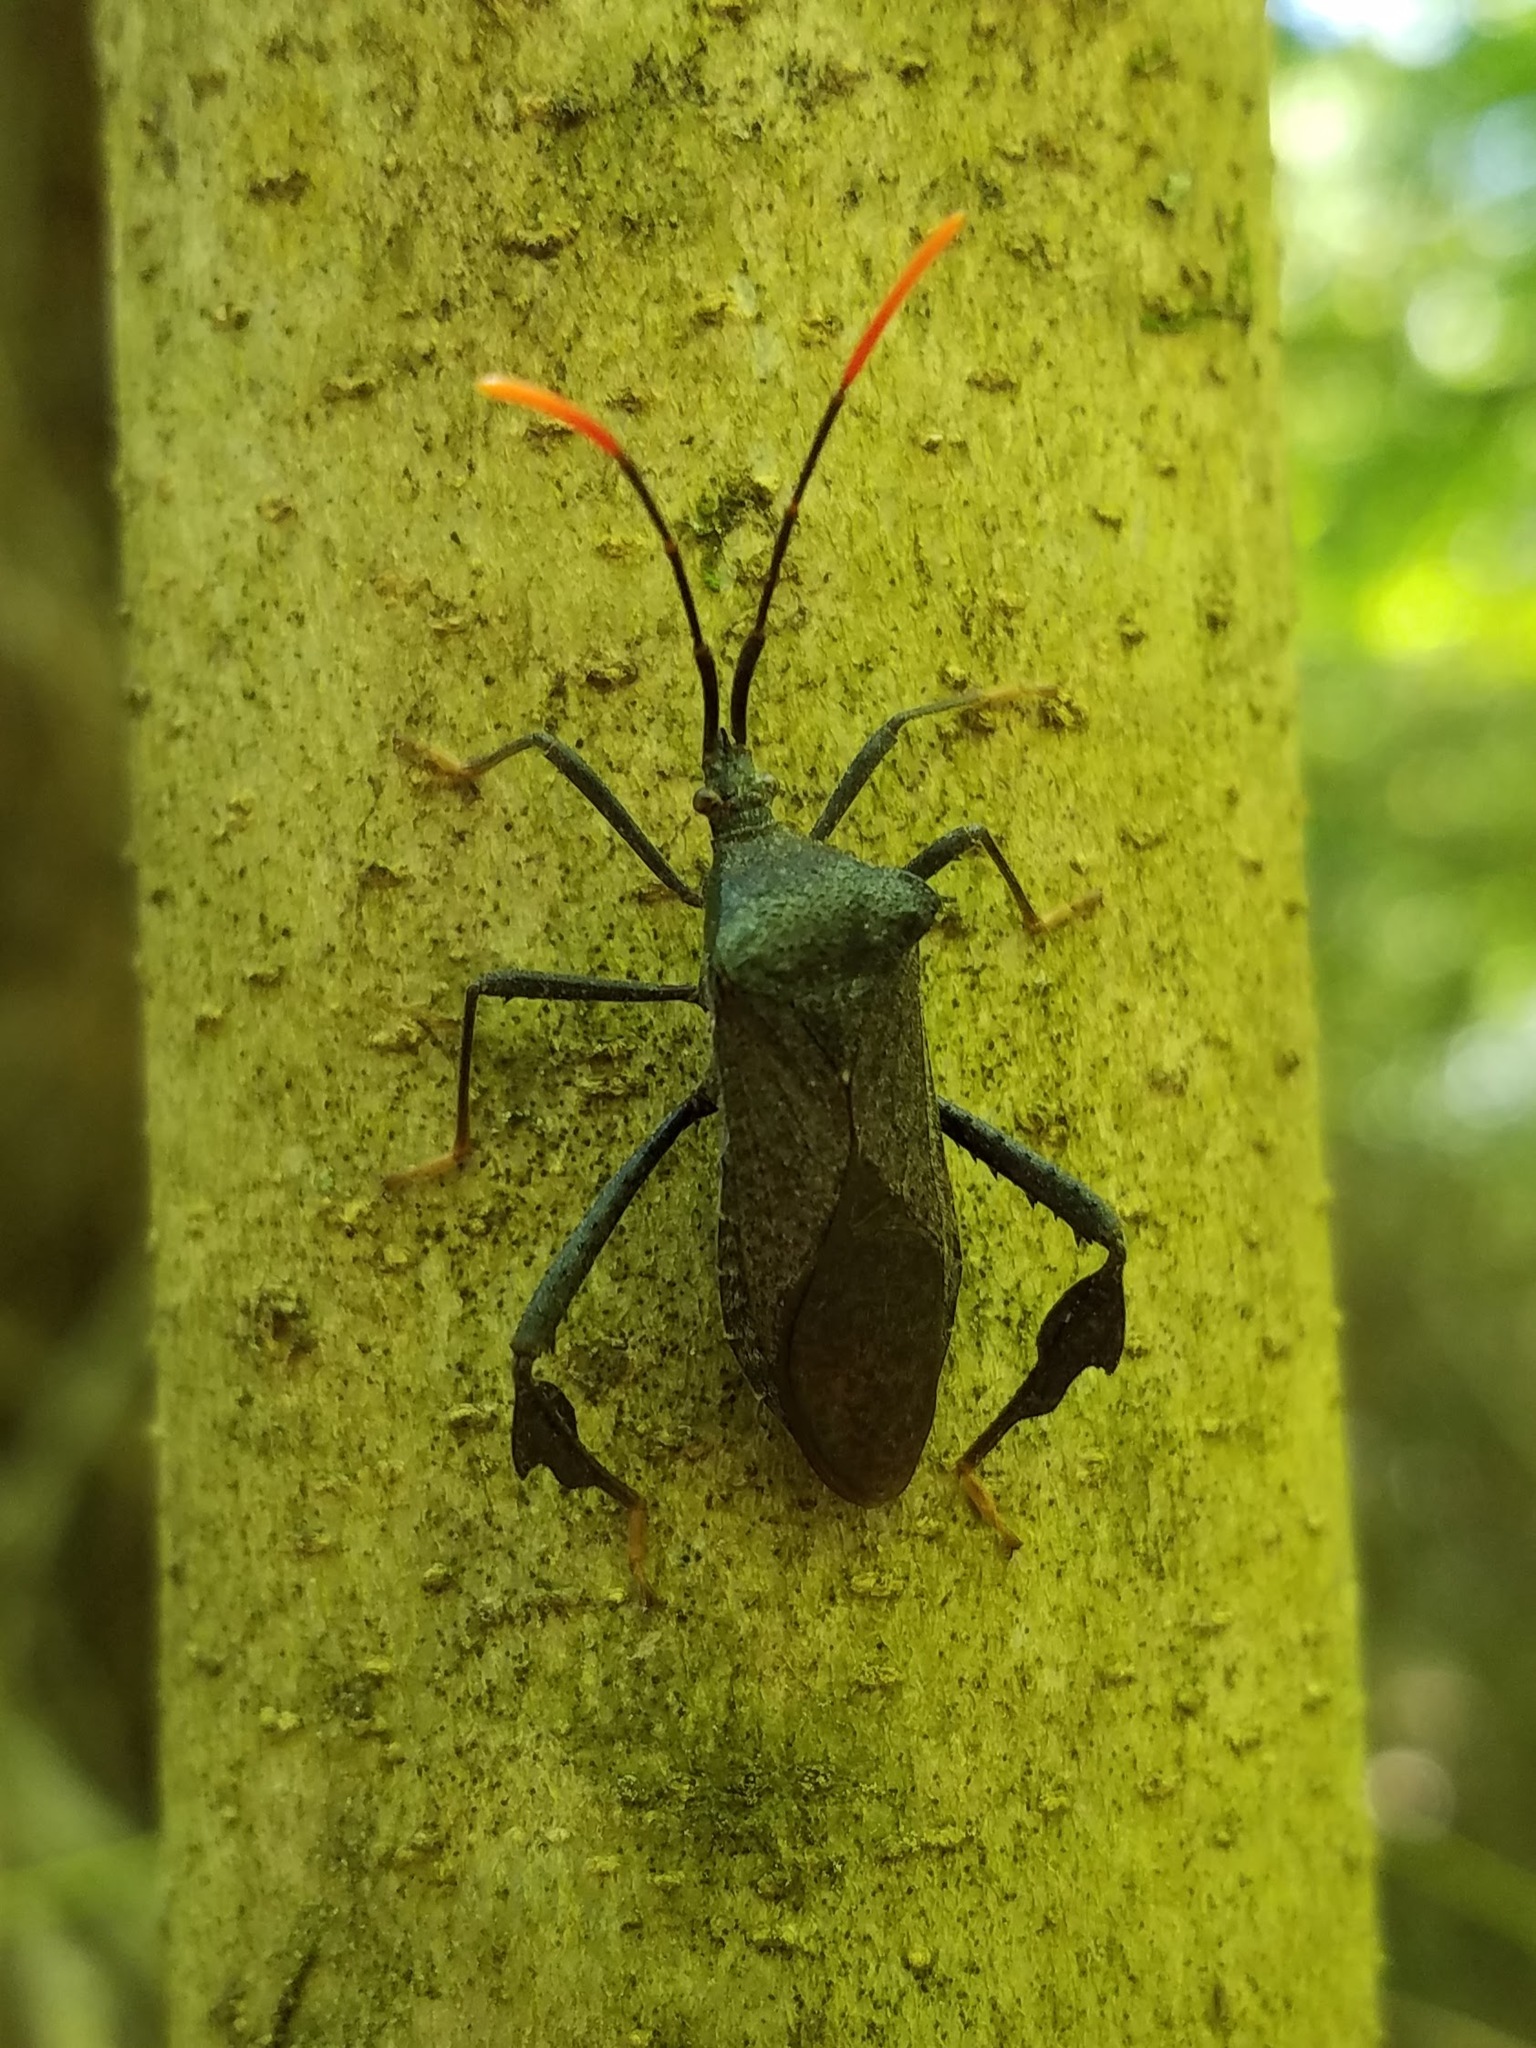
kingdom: Animalia
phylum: Arthropoda
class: Insecta
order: Hemiptera
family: Coreidae
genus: Acanthocephala
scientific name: Acanthocephala terminalis
